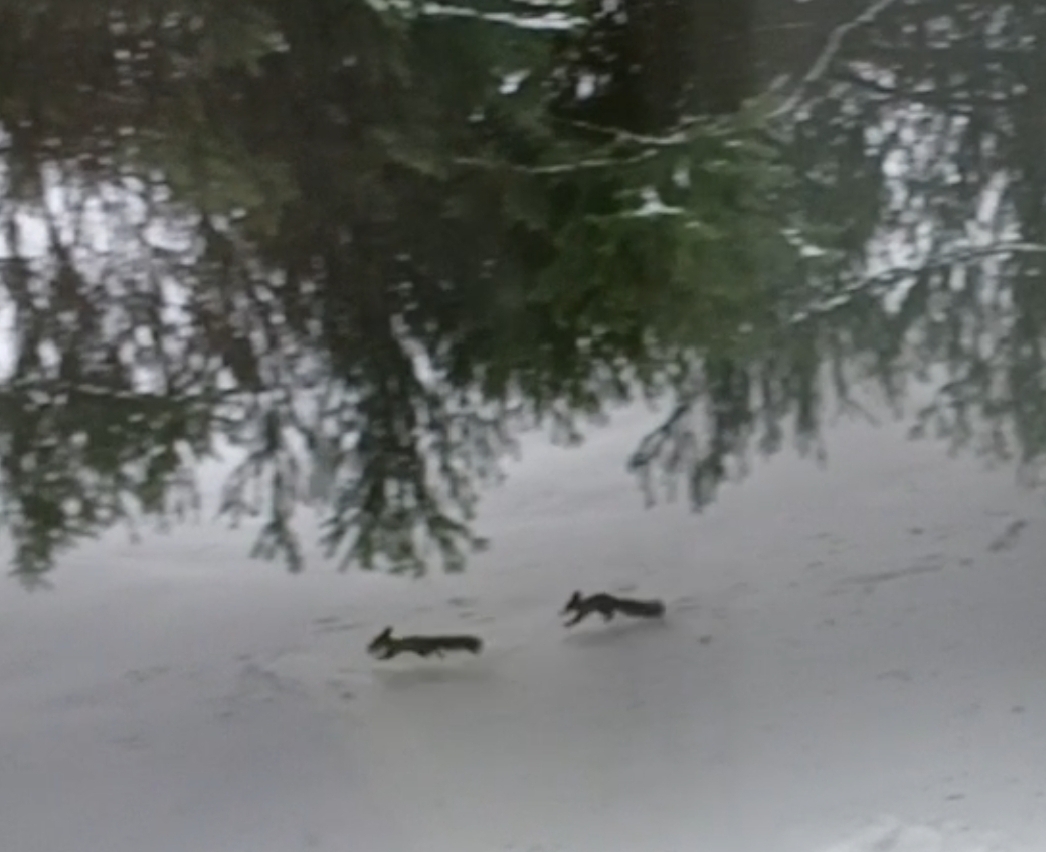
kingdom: Animalia
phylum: Chordata
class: Mammalia
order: Rodentia
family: Sciuridae
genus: Sciurus
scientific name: Sciurus vulgaris
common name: Eurasian red squirrel
